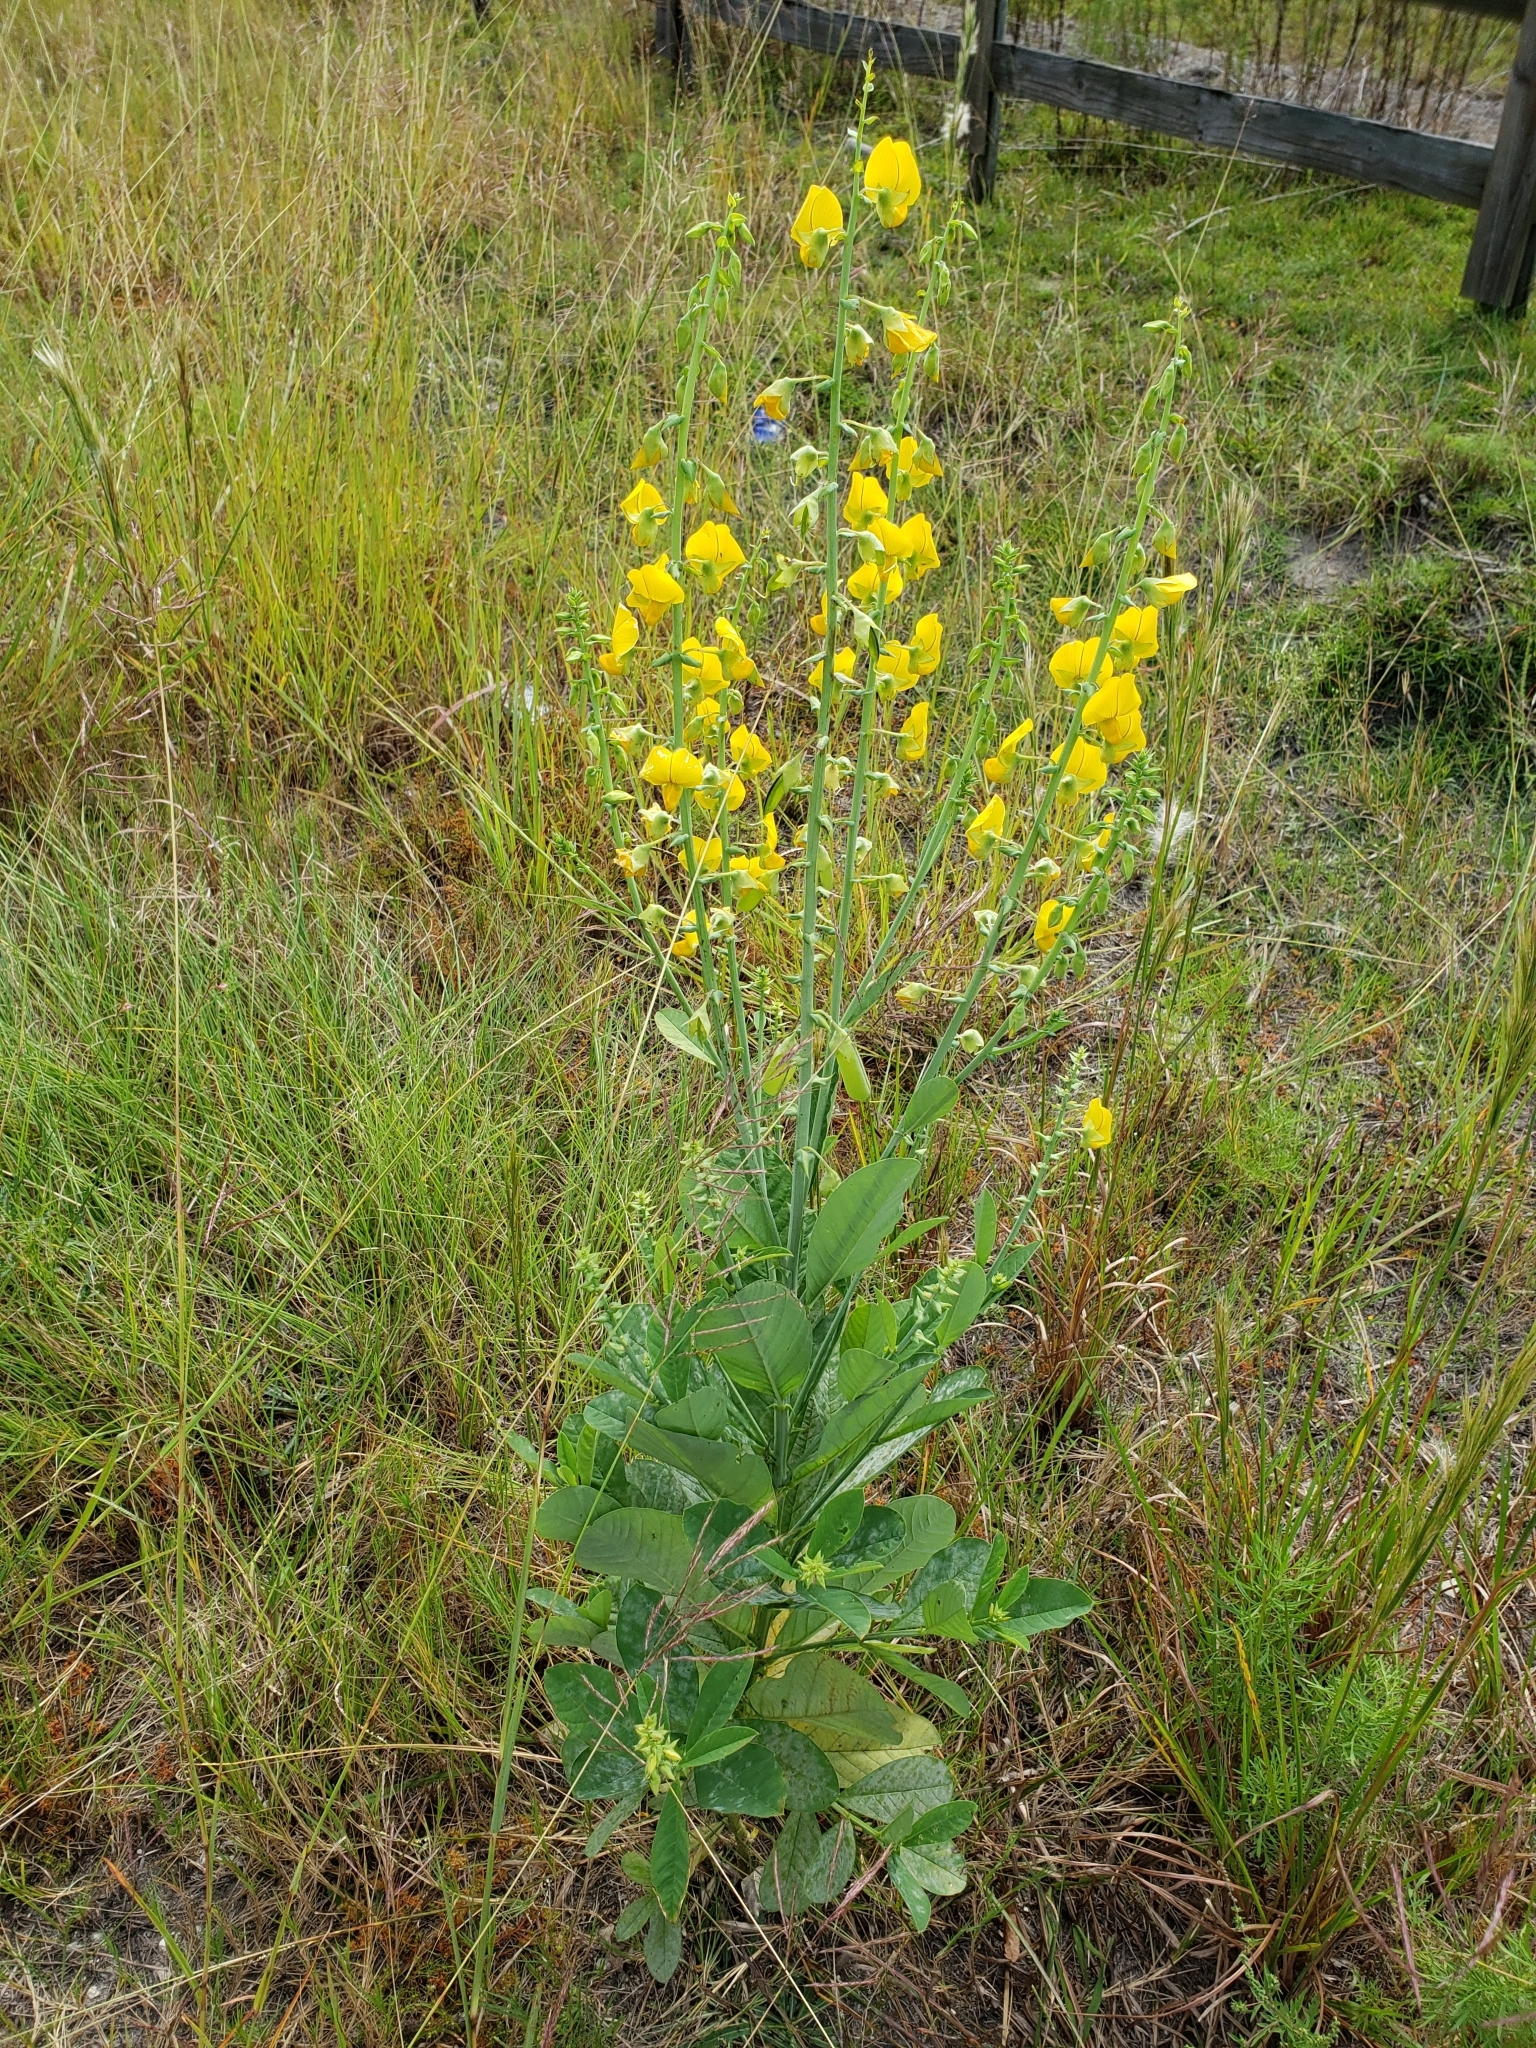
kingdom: Plantae
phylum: Tracheophyta
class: Magnoliopsida
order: Fabales
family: Fabaceae
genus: Crotalaria
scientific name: Crotalaria spectabilis
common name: Showy rattlebox
